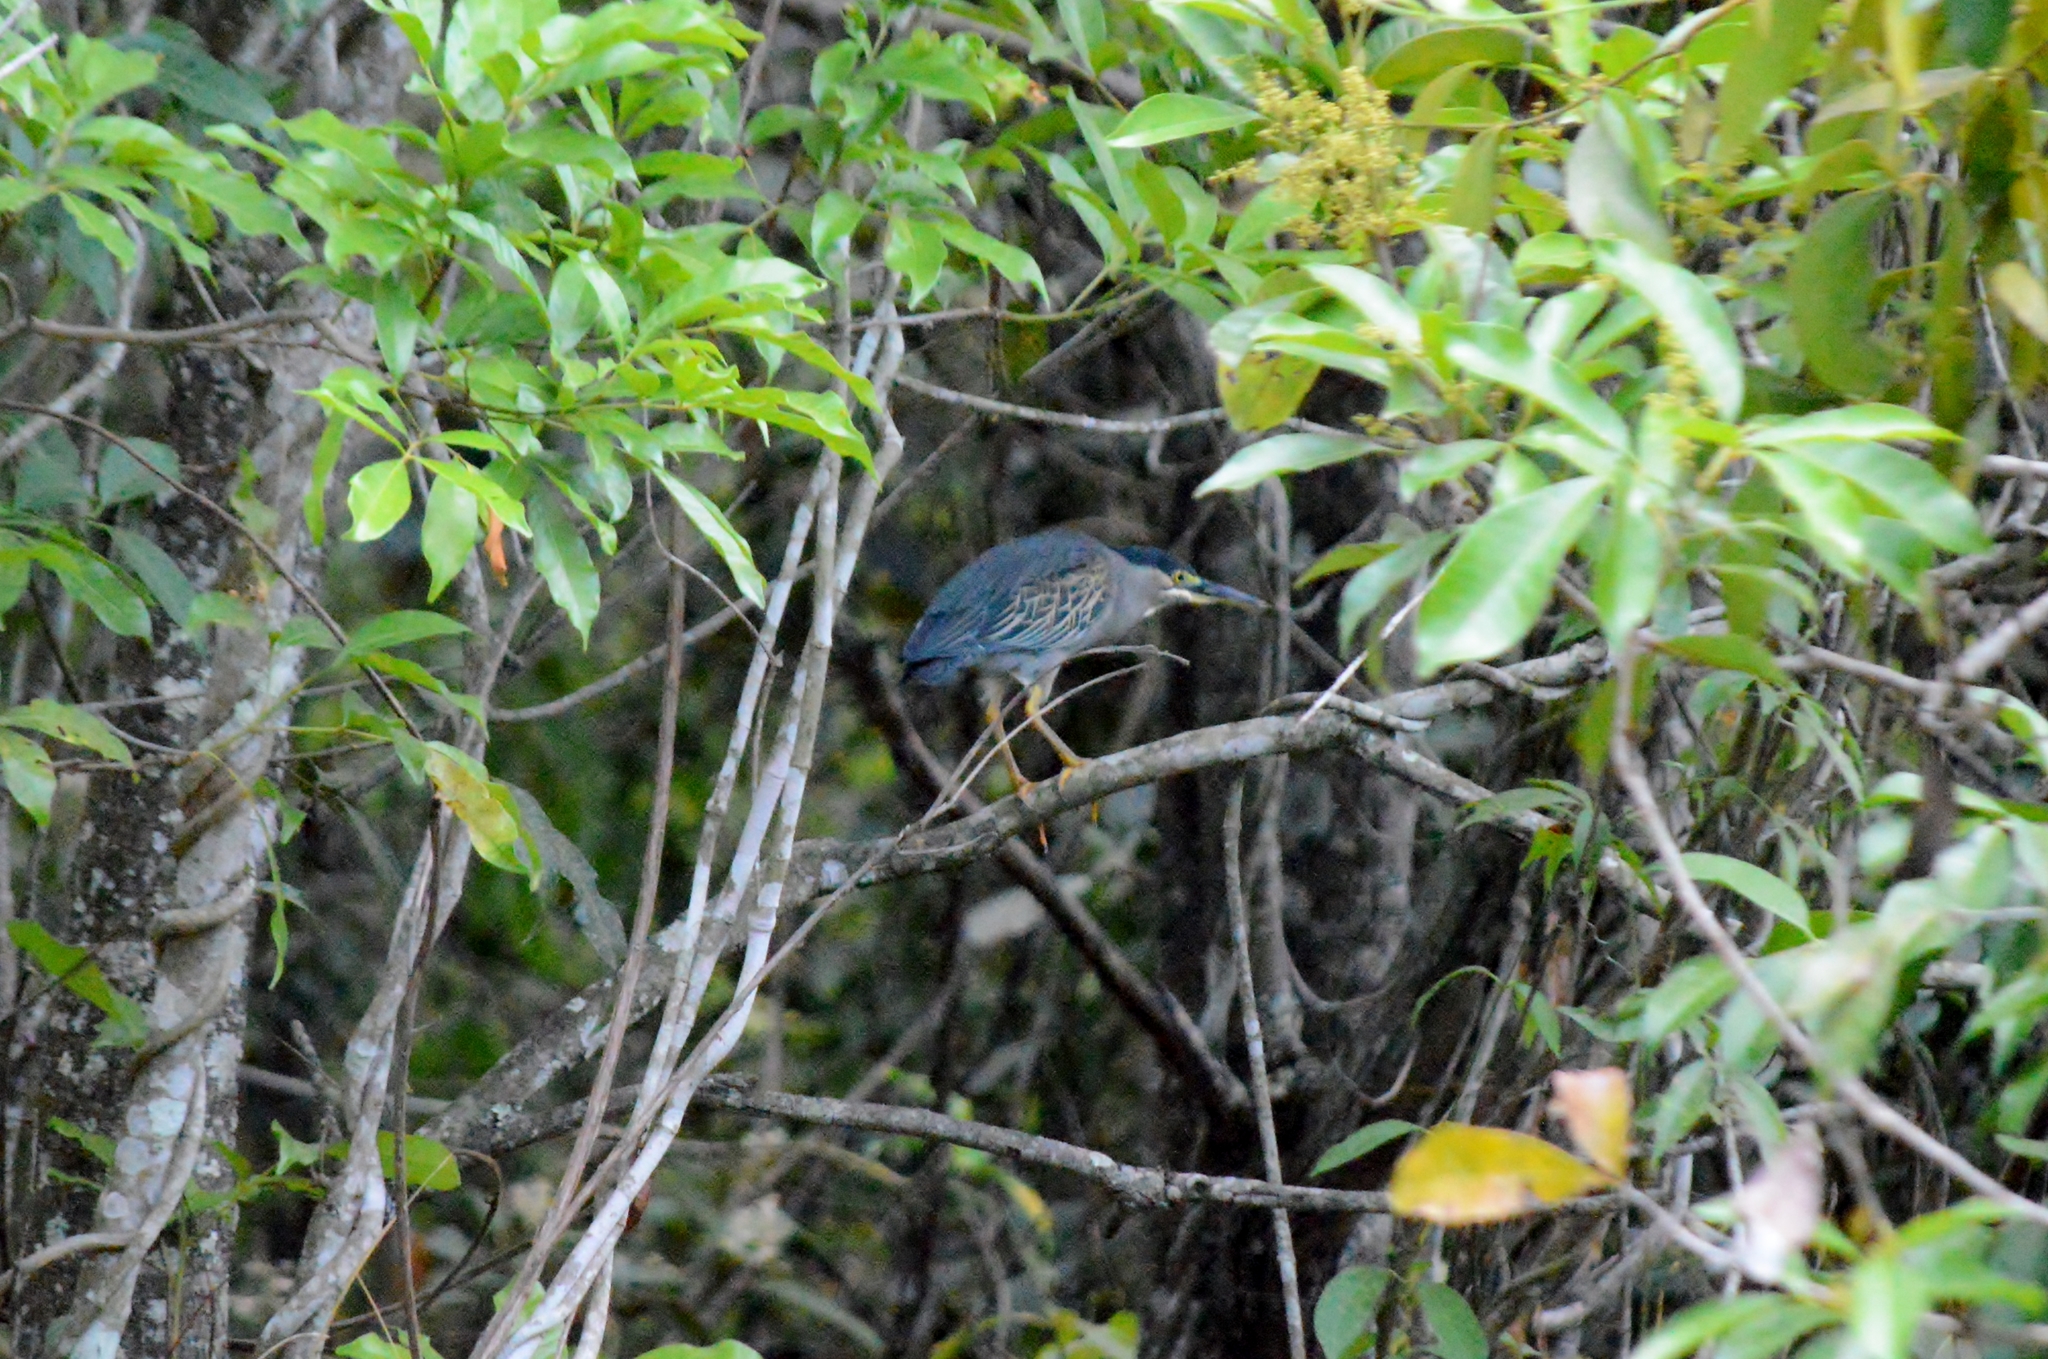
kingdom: Animalia
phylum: Chordata
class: Aves
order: Pelecaniformes
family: Ardeidae
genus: Butorides
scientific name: Butorides striata
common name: Striated heron
